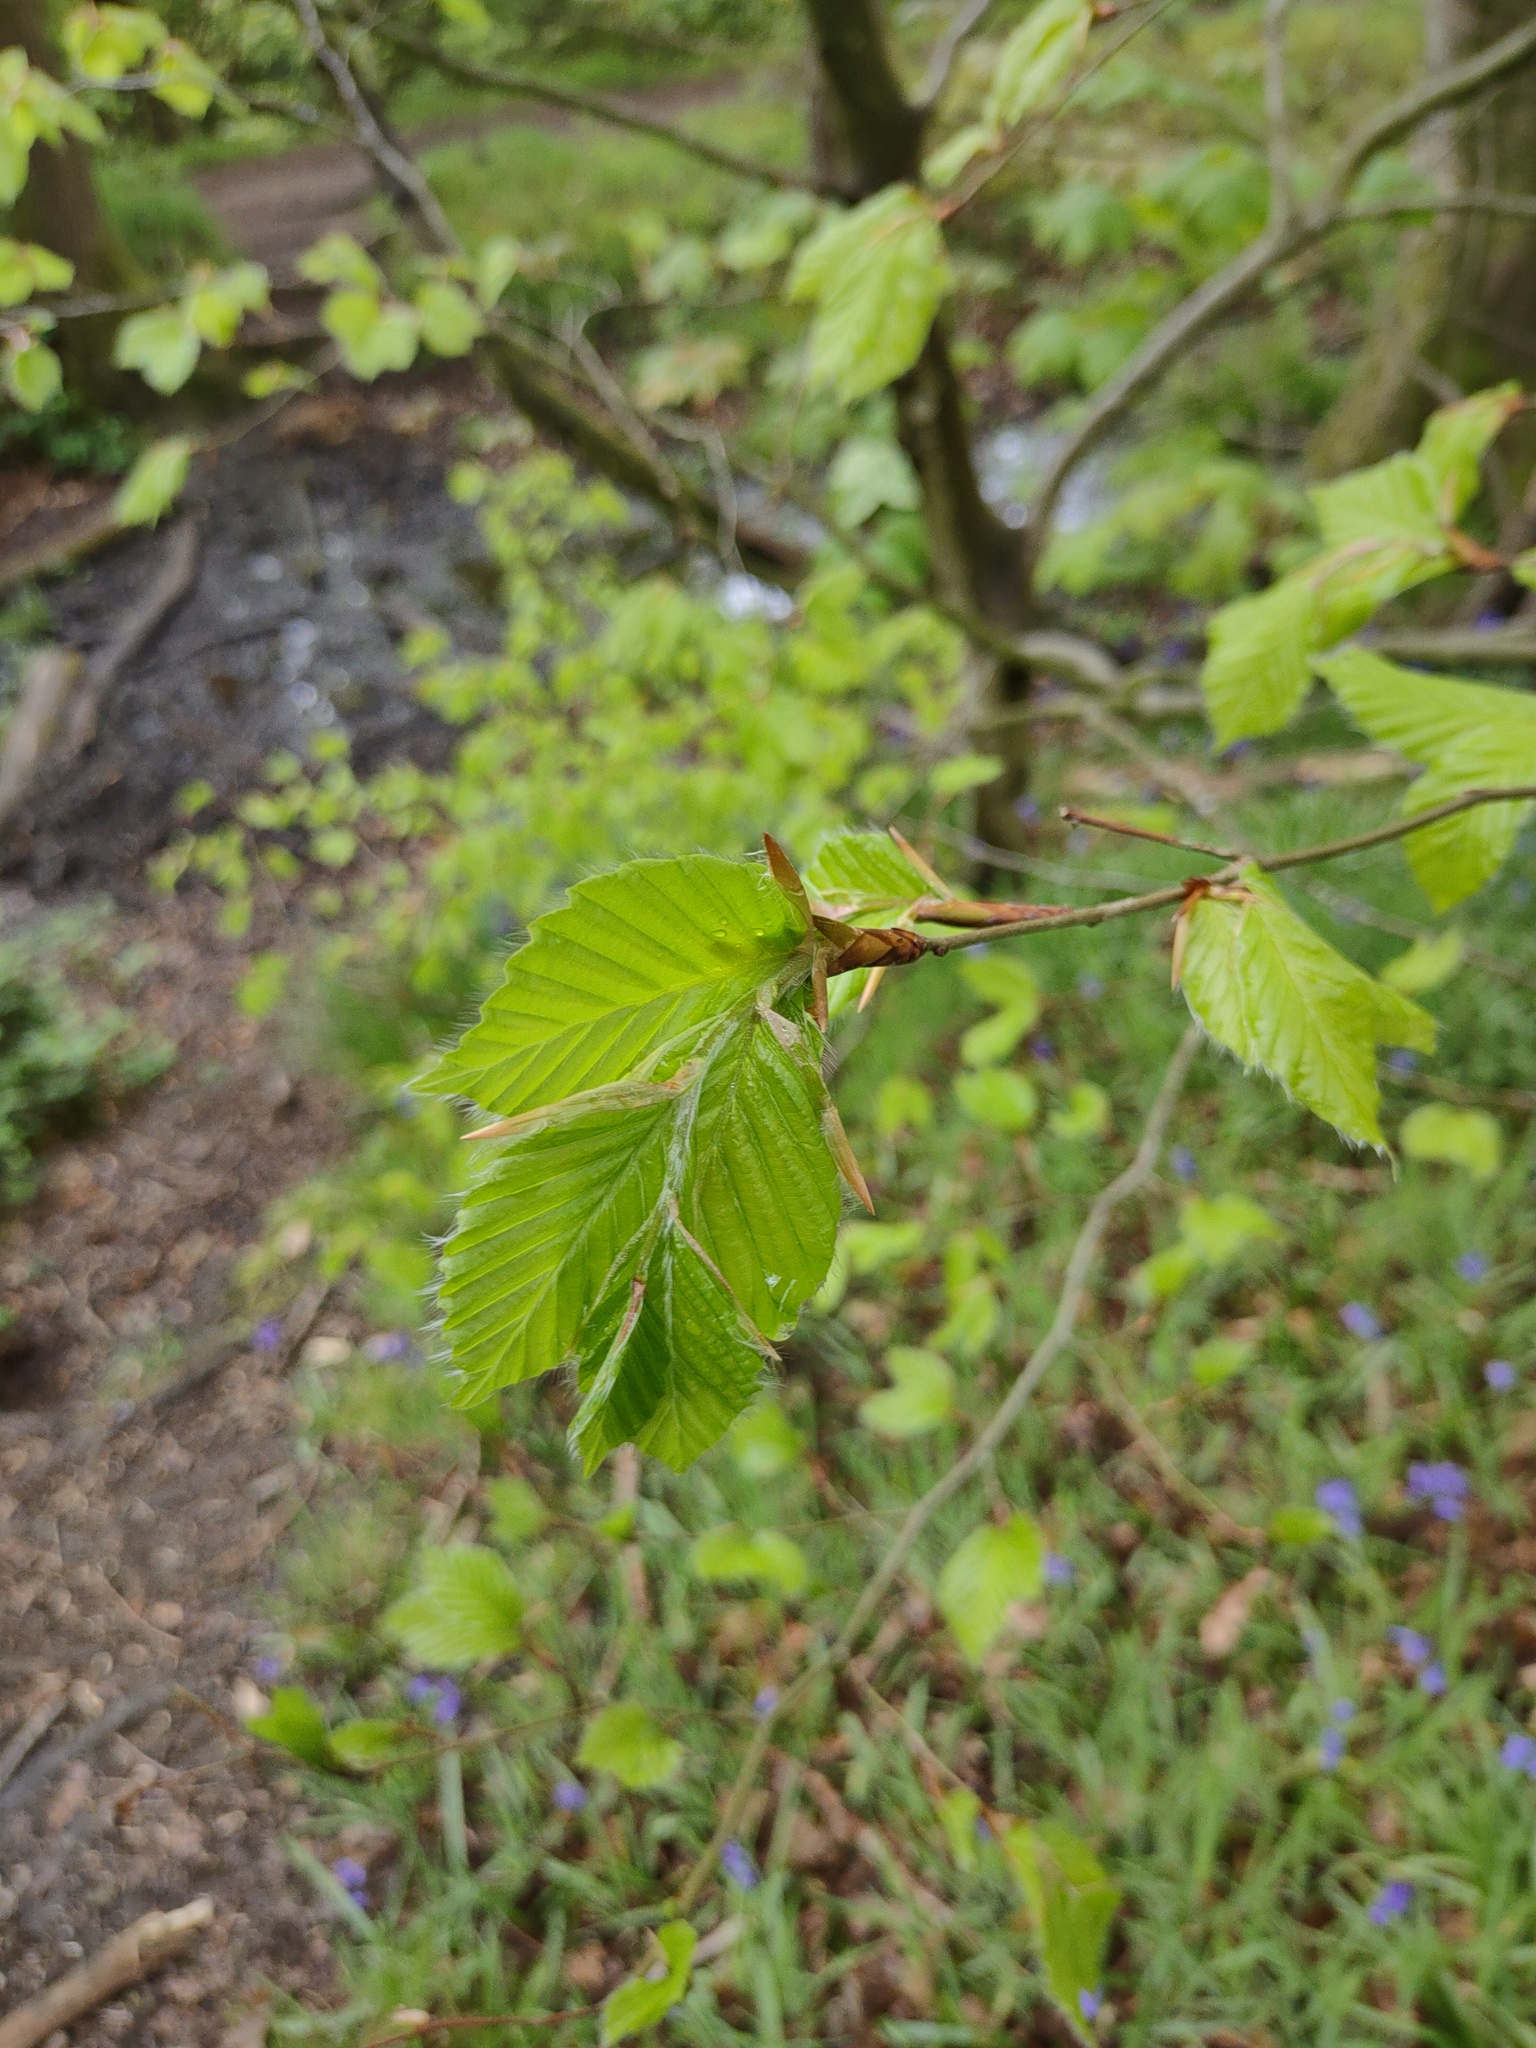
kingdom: Plantae
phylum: Tracheophyta
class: Magnoliopsida
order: Fagales
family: Fagaceae
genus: Fagus
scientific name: Fagus sylvatica
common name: Beech
